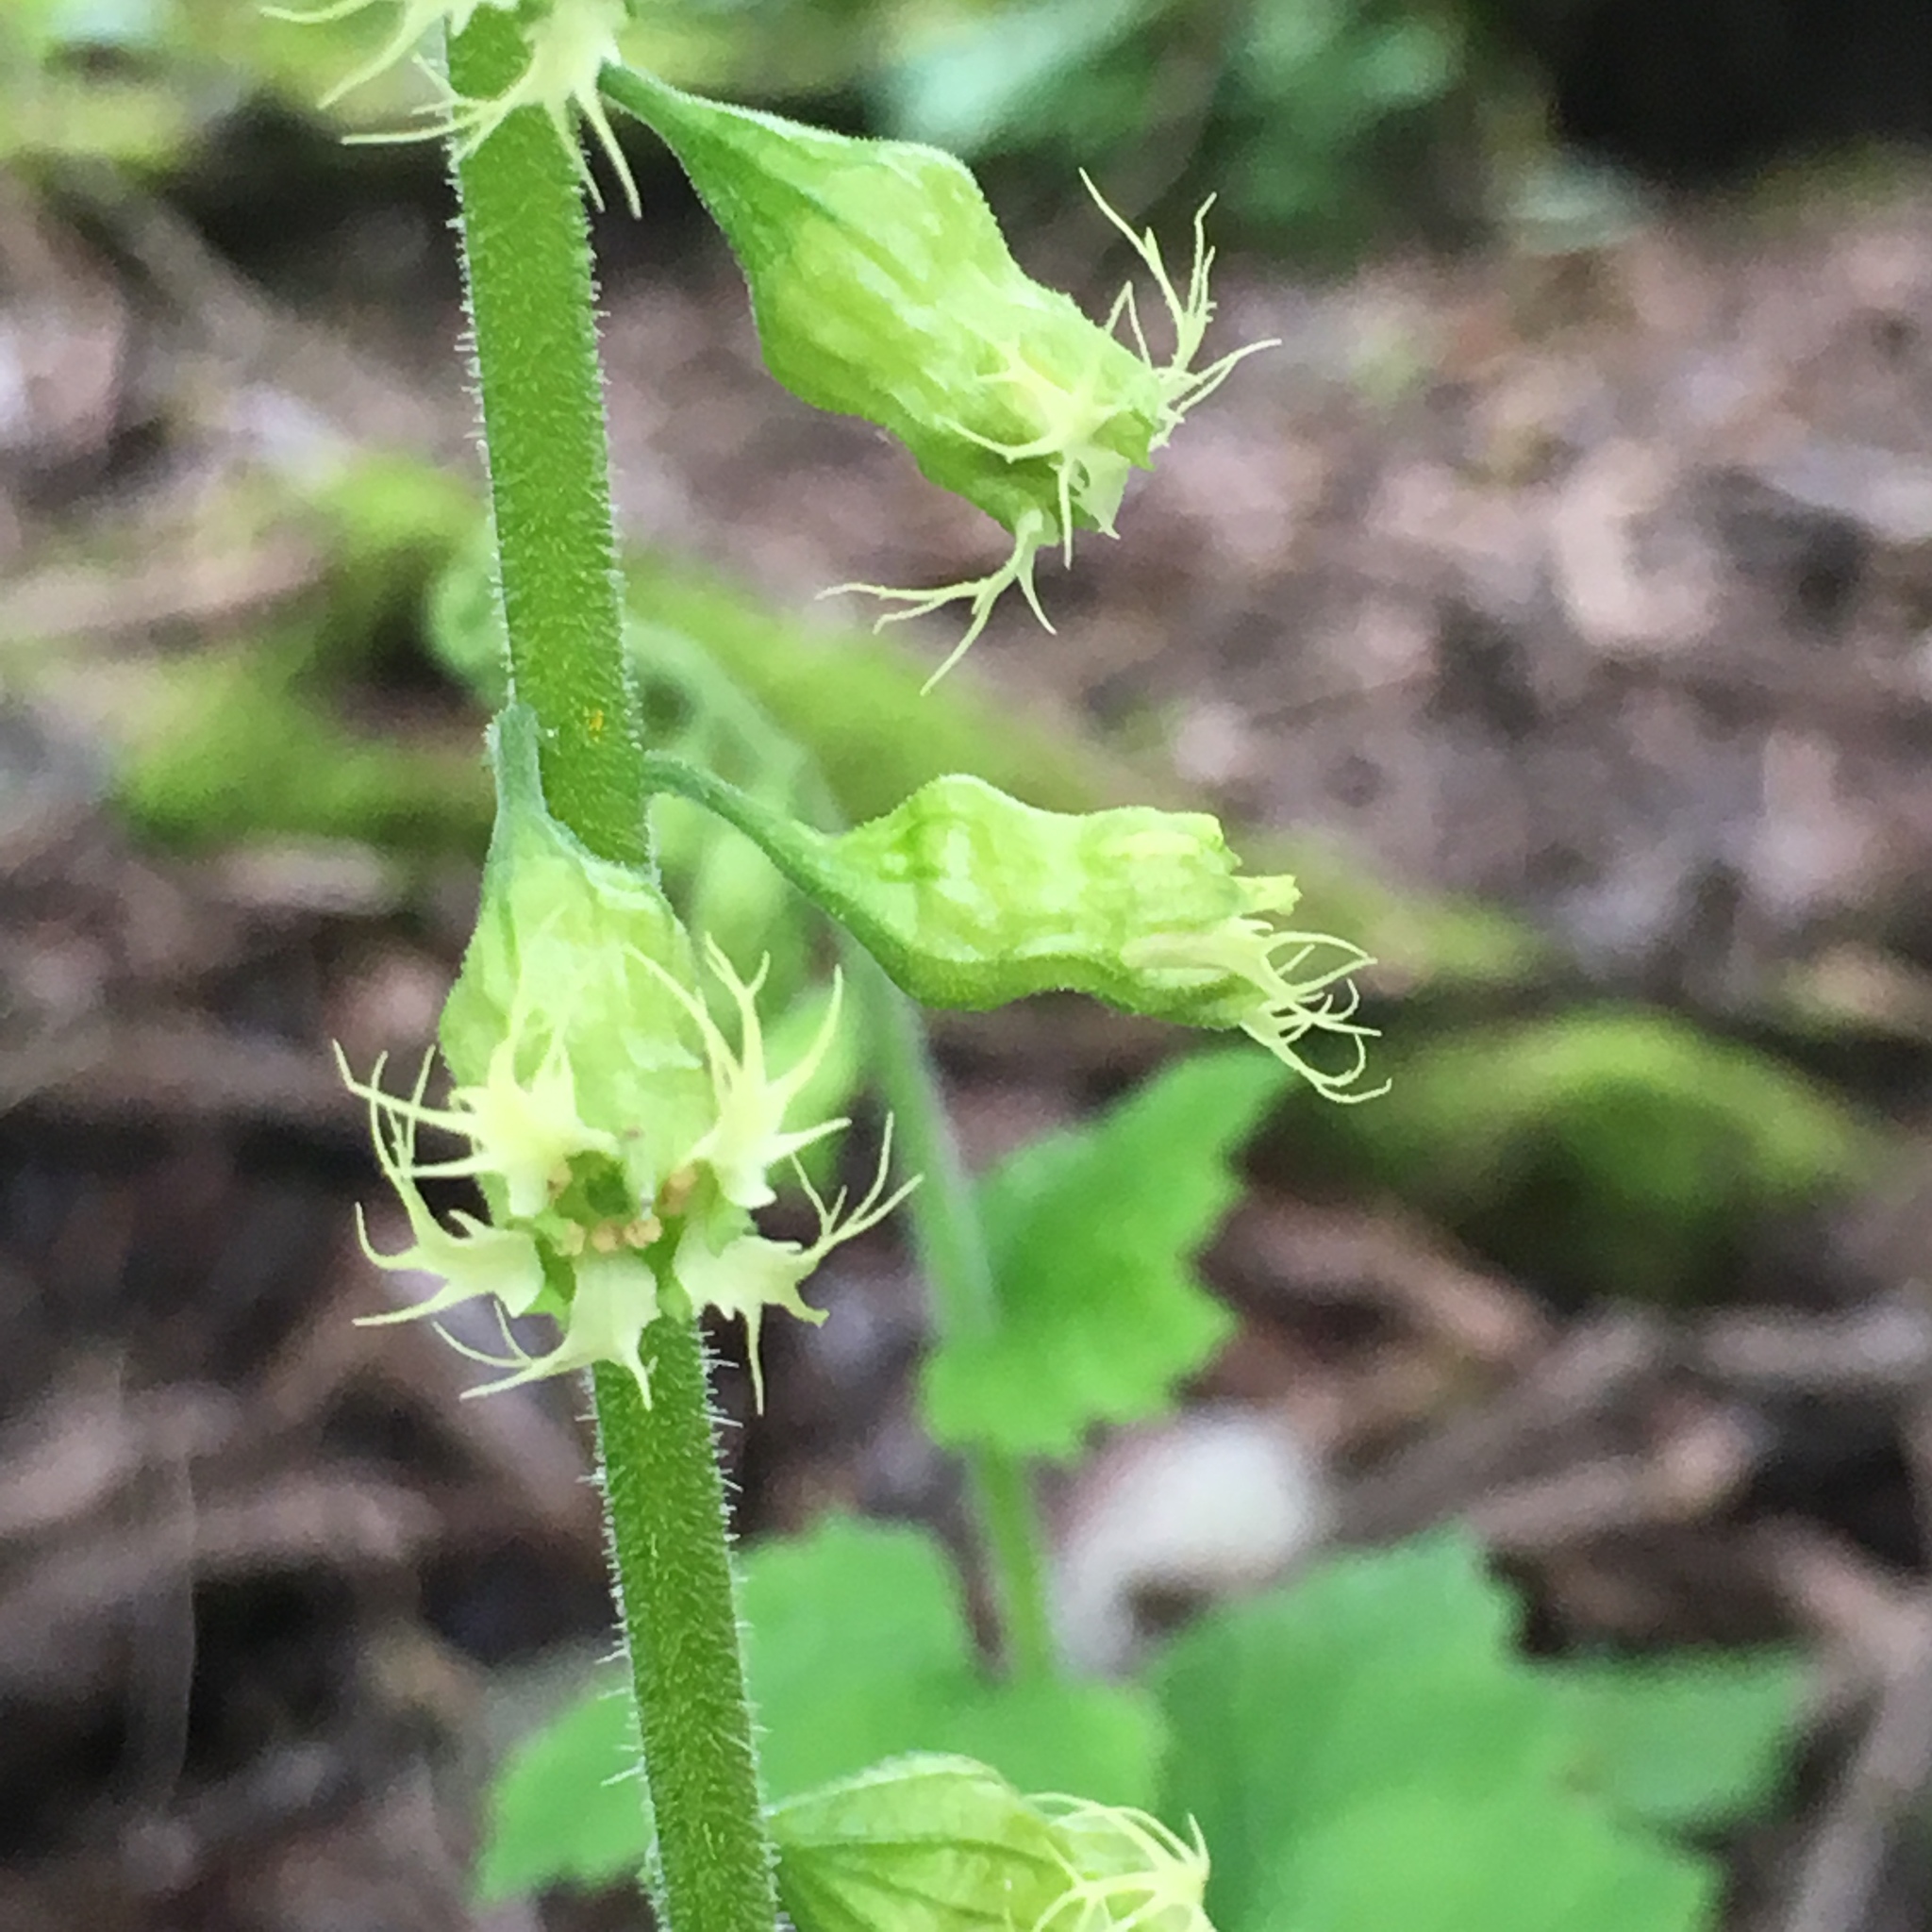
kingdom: Plantae
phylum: Tracheophyta
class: Magnoliopsida
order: Saxifragales
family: Saxifragaceae
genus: Tellima
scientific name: Tellima grandiflora
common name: Fringecups
